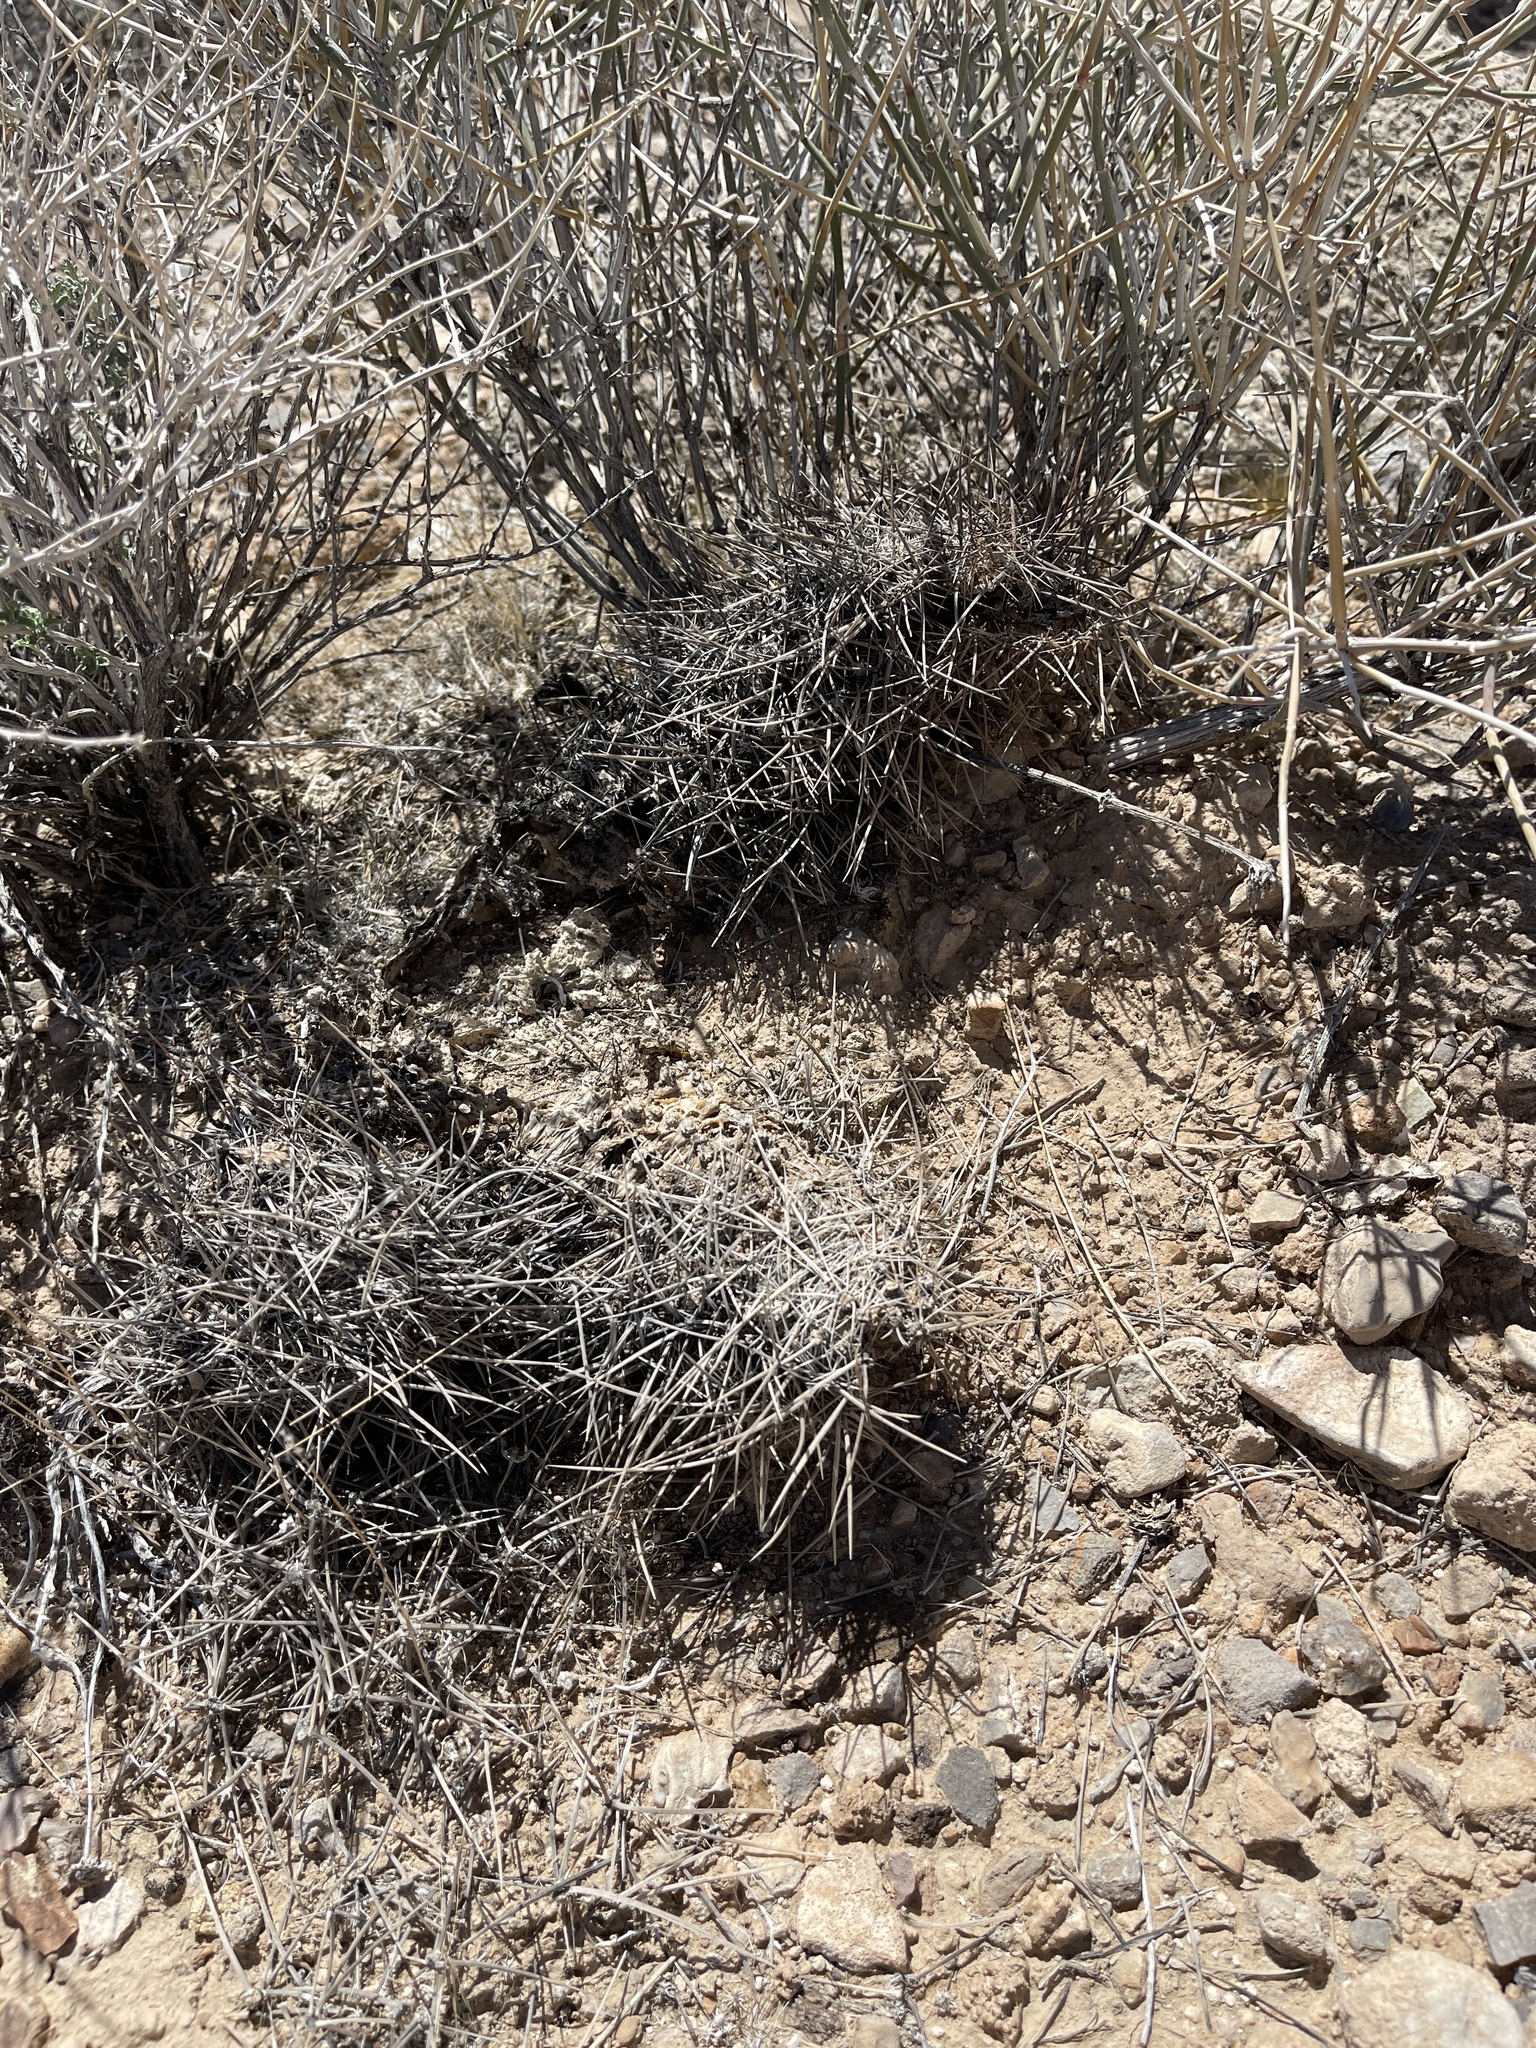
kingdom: Plantae
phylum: Tracheophyta
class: Magnoliopsida
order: Caryophyllales
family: Cactaceae
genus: Echinocactus
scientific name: Echinocactus polycephalus
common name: Cottontop cactus
